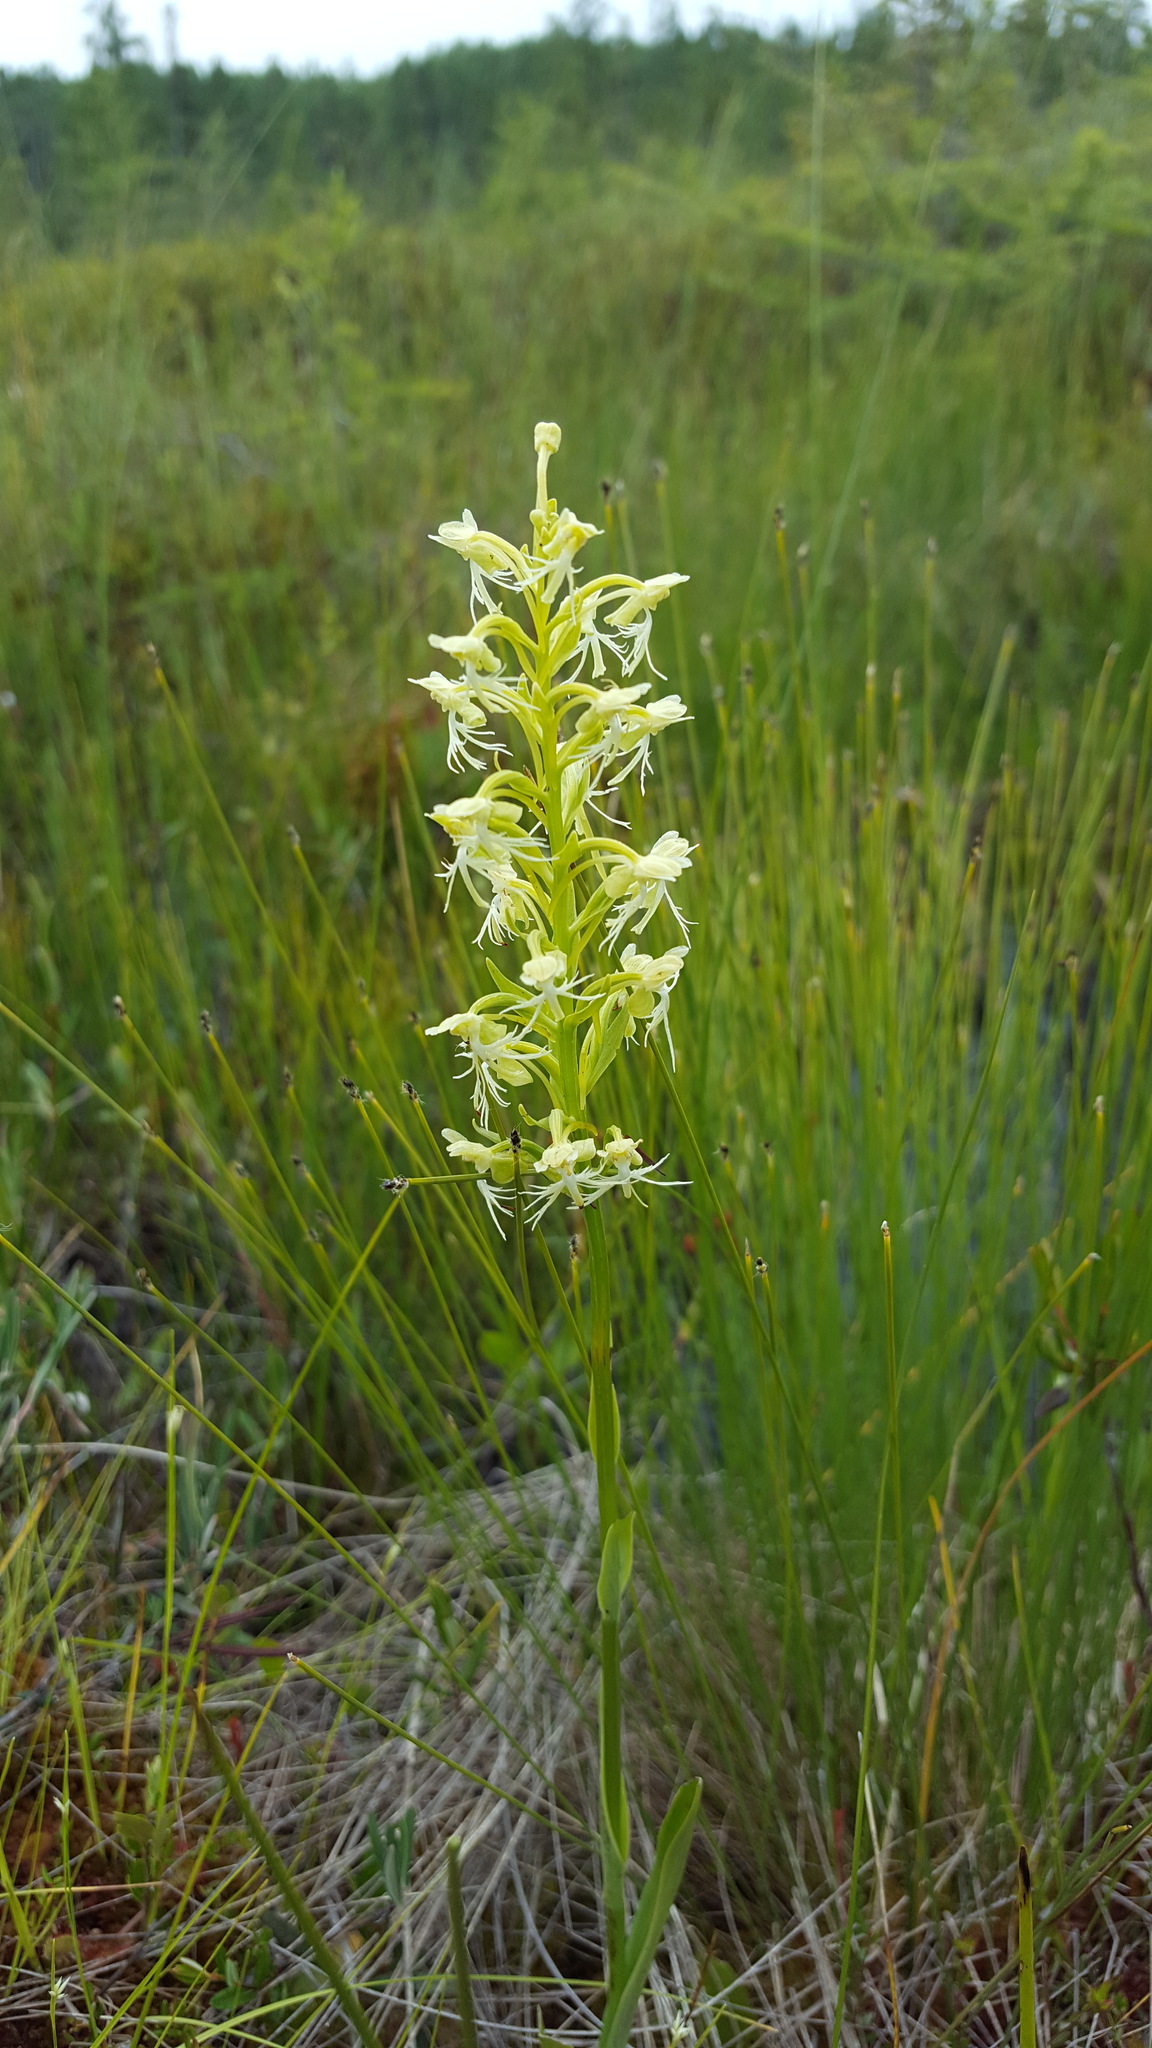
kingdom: Plantae
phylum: Tracheophyta
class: Liliopsida
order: Asparagales
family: Orchidaceae
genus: Platanthera
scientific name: Platanthera lacera
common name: Green fringed orchid
